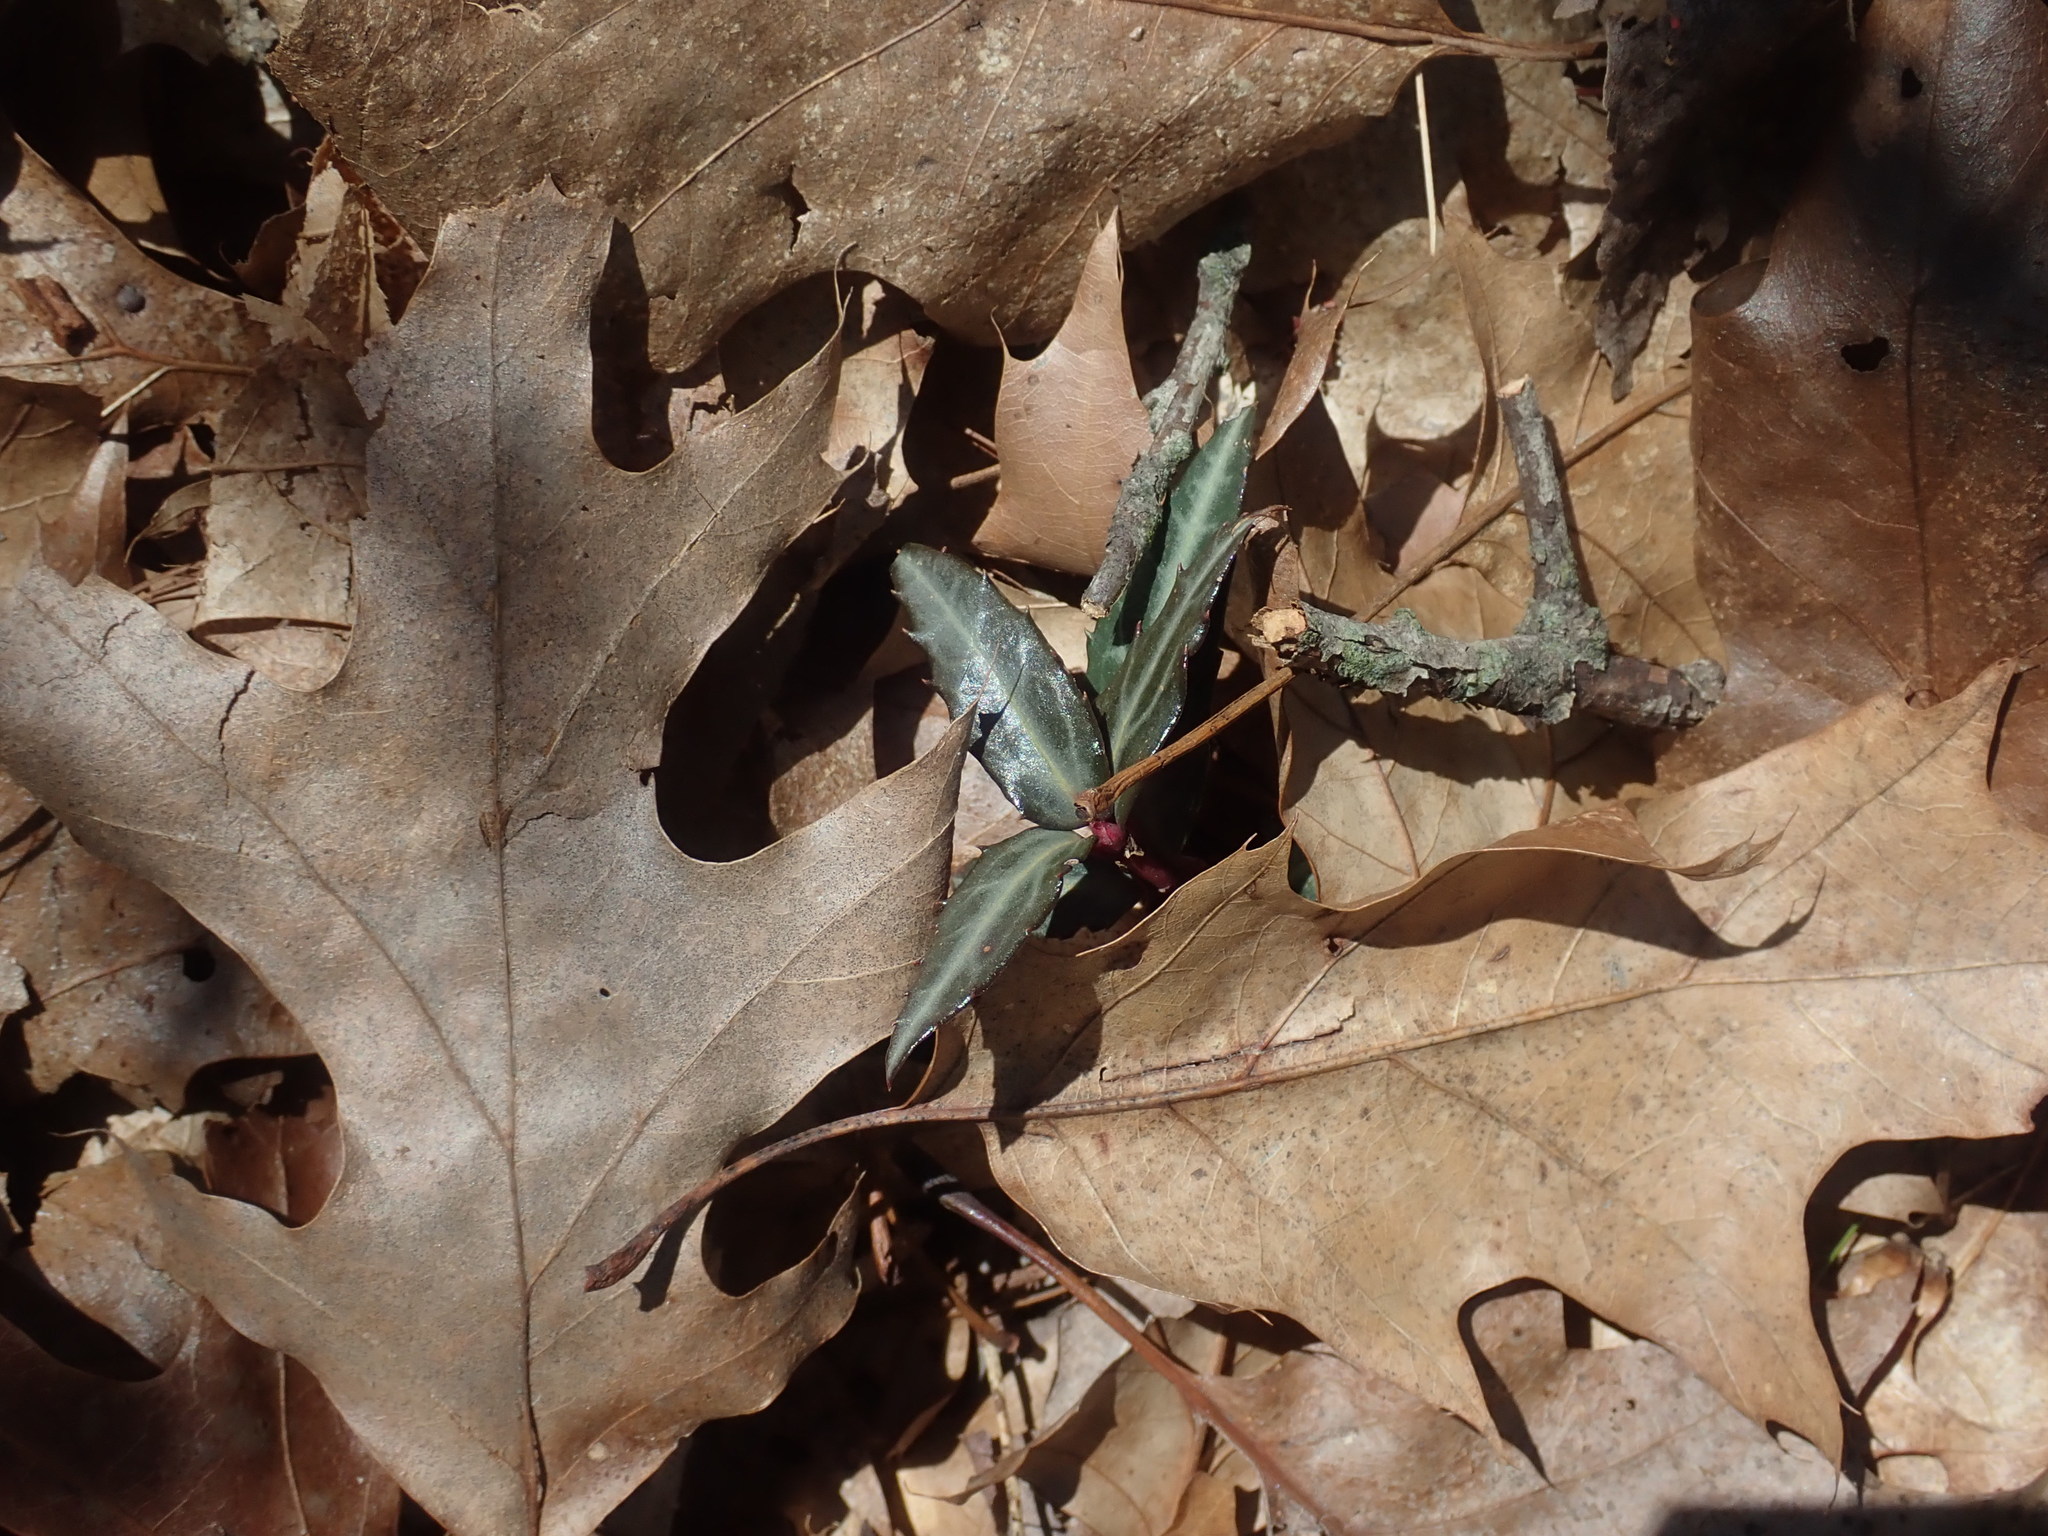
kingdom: Plantae
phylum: Tracheophyta
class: Magnoliopsida
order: Ericales
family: Ericaceae
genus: Chimaphila
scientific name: Chimaphila maculata
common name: Spotted pipsissewa
